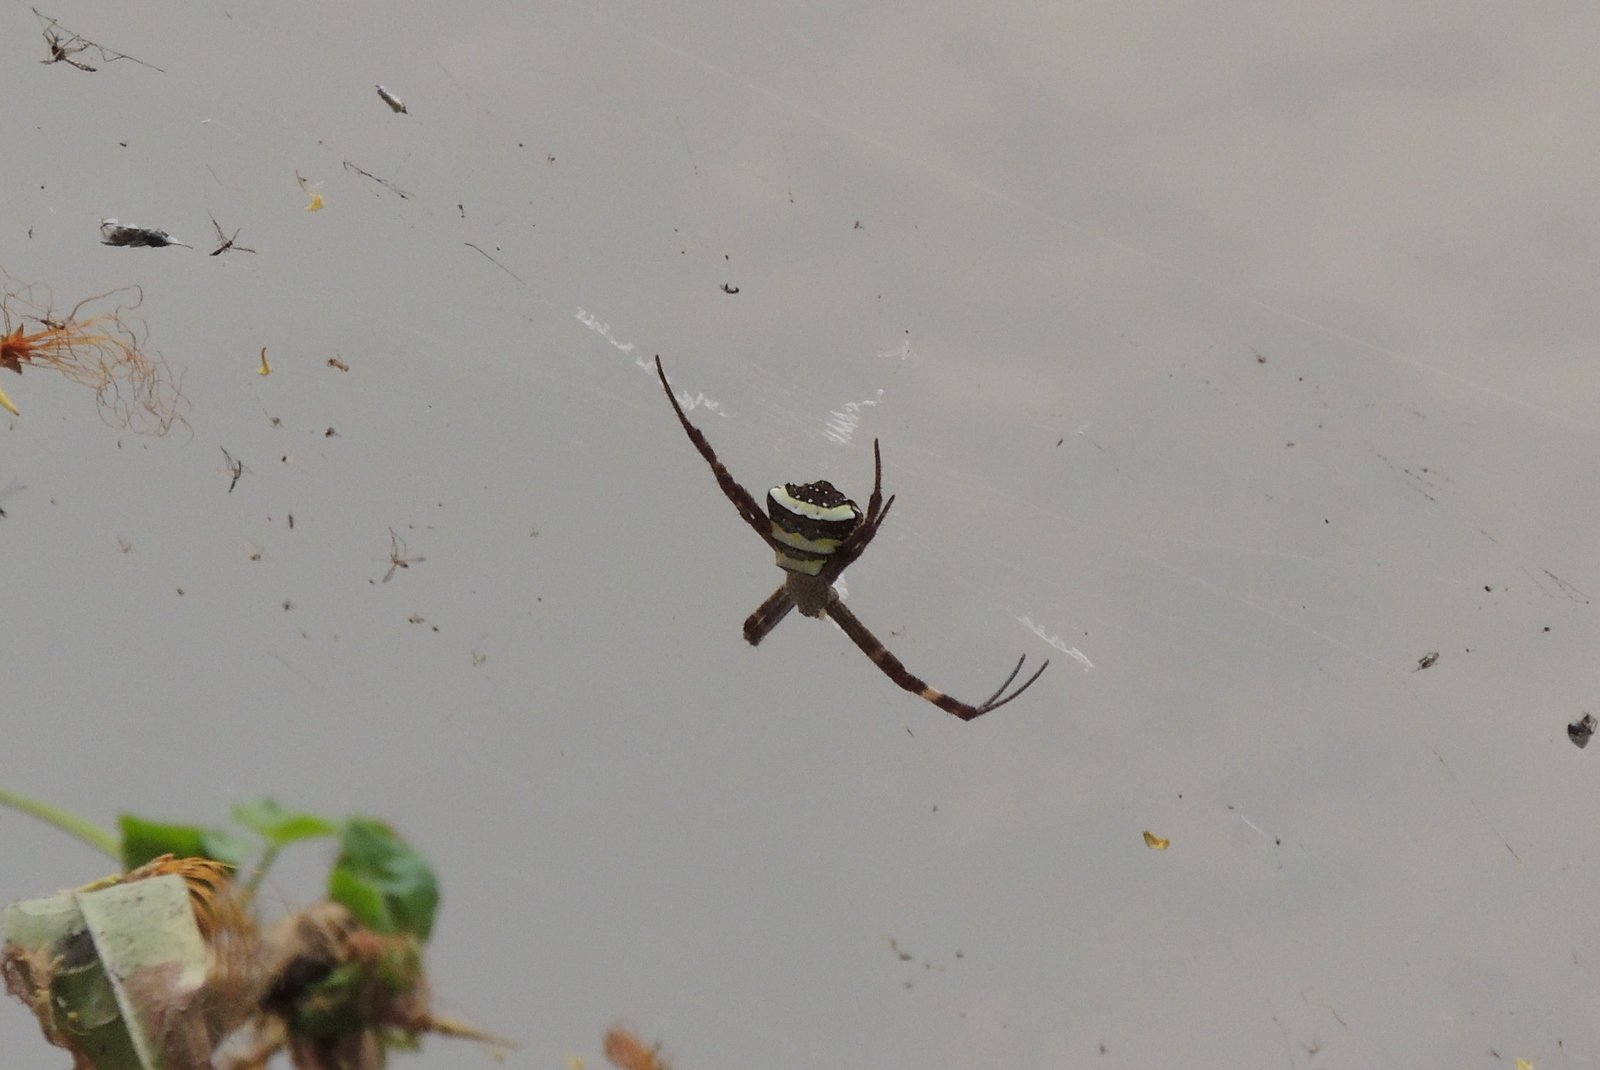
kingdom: Animalia
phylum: Arthropoda
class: Arachnida
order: Araneae
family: Araneidae
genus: Argiope
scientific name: Argiope pulchella
